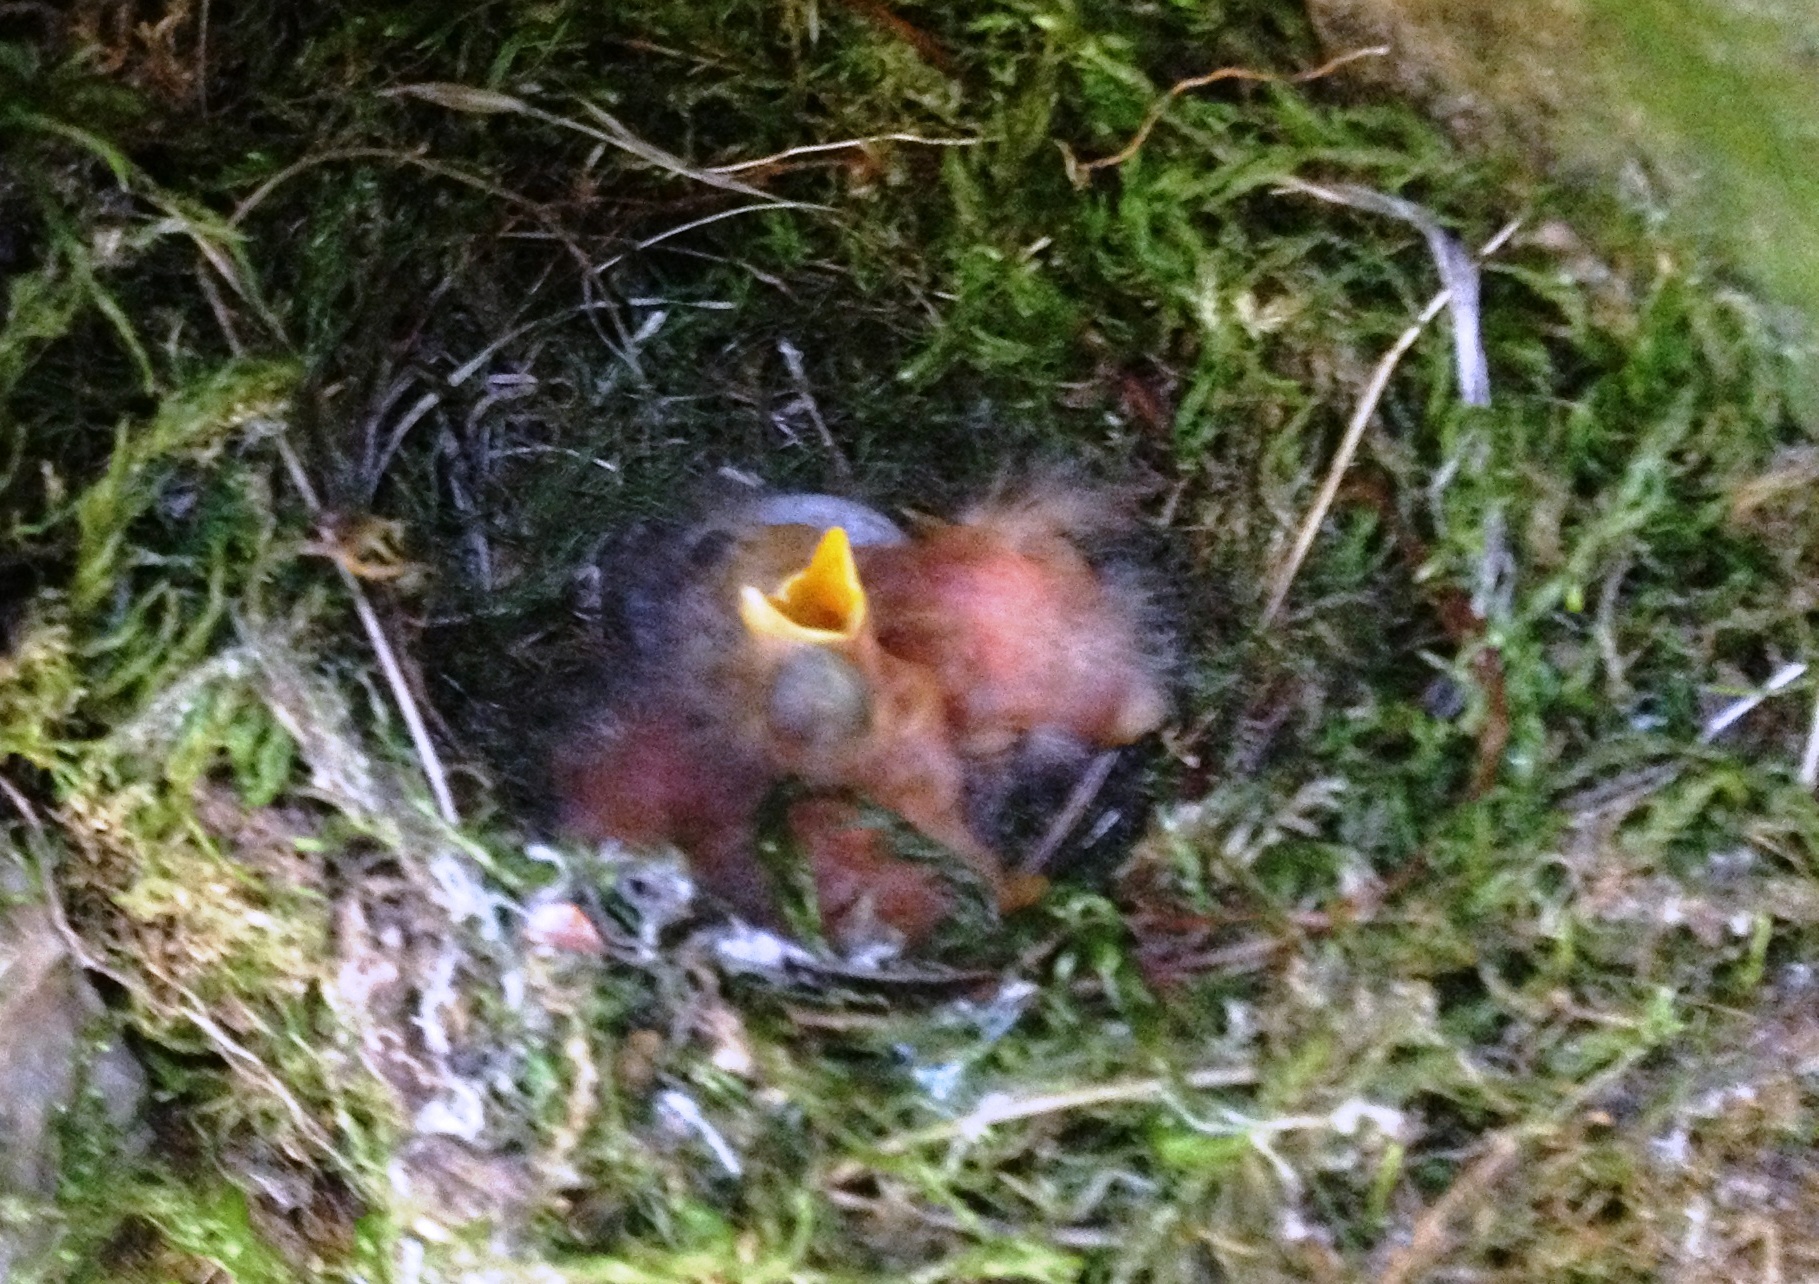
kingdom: Animalia
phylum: Chordata
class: Aves
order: Passeriformes
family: Tyrannidae
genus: Empidonax
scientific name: Empidonax difficilis
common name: Pacific-slope flycatcher
